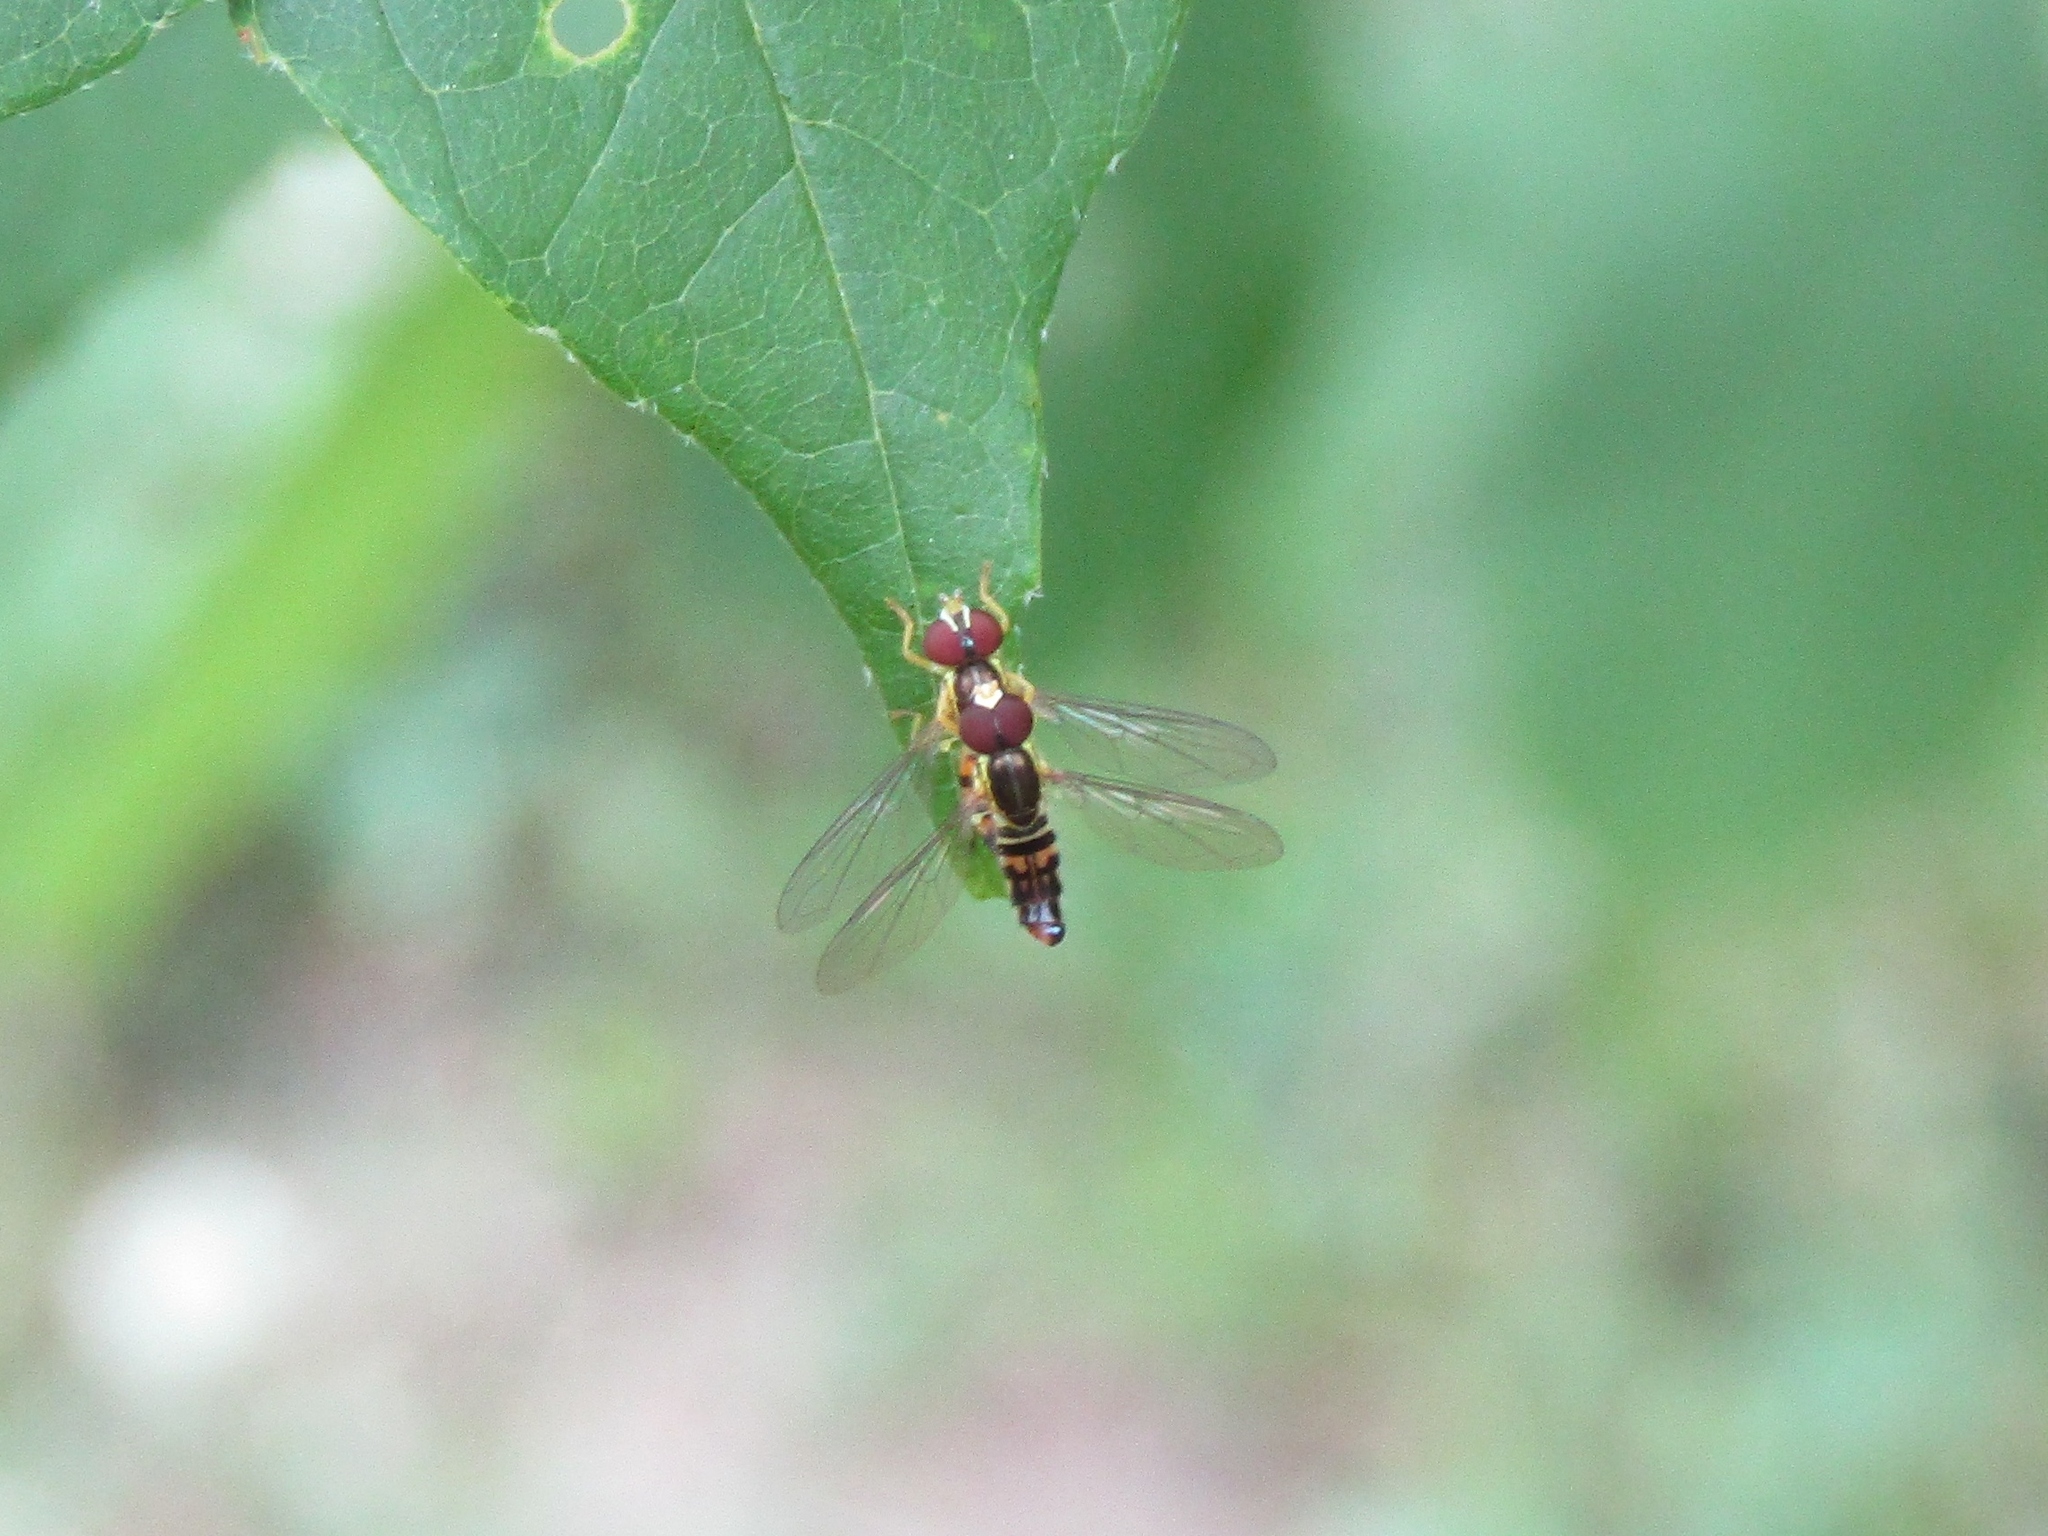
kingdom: Animalia
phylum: Arthropoda
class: Insecta
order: Diptera
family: Syrphidae
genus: Toxomerus
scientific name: Toxomerus geminatus
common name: Eastern calligrapher
